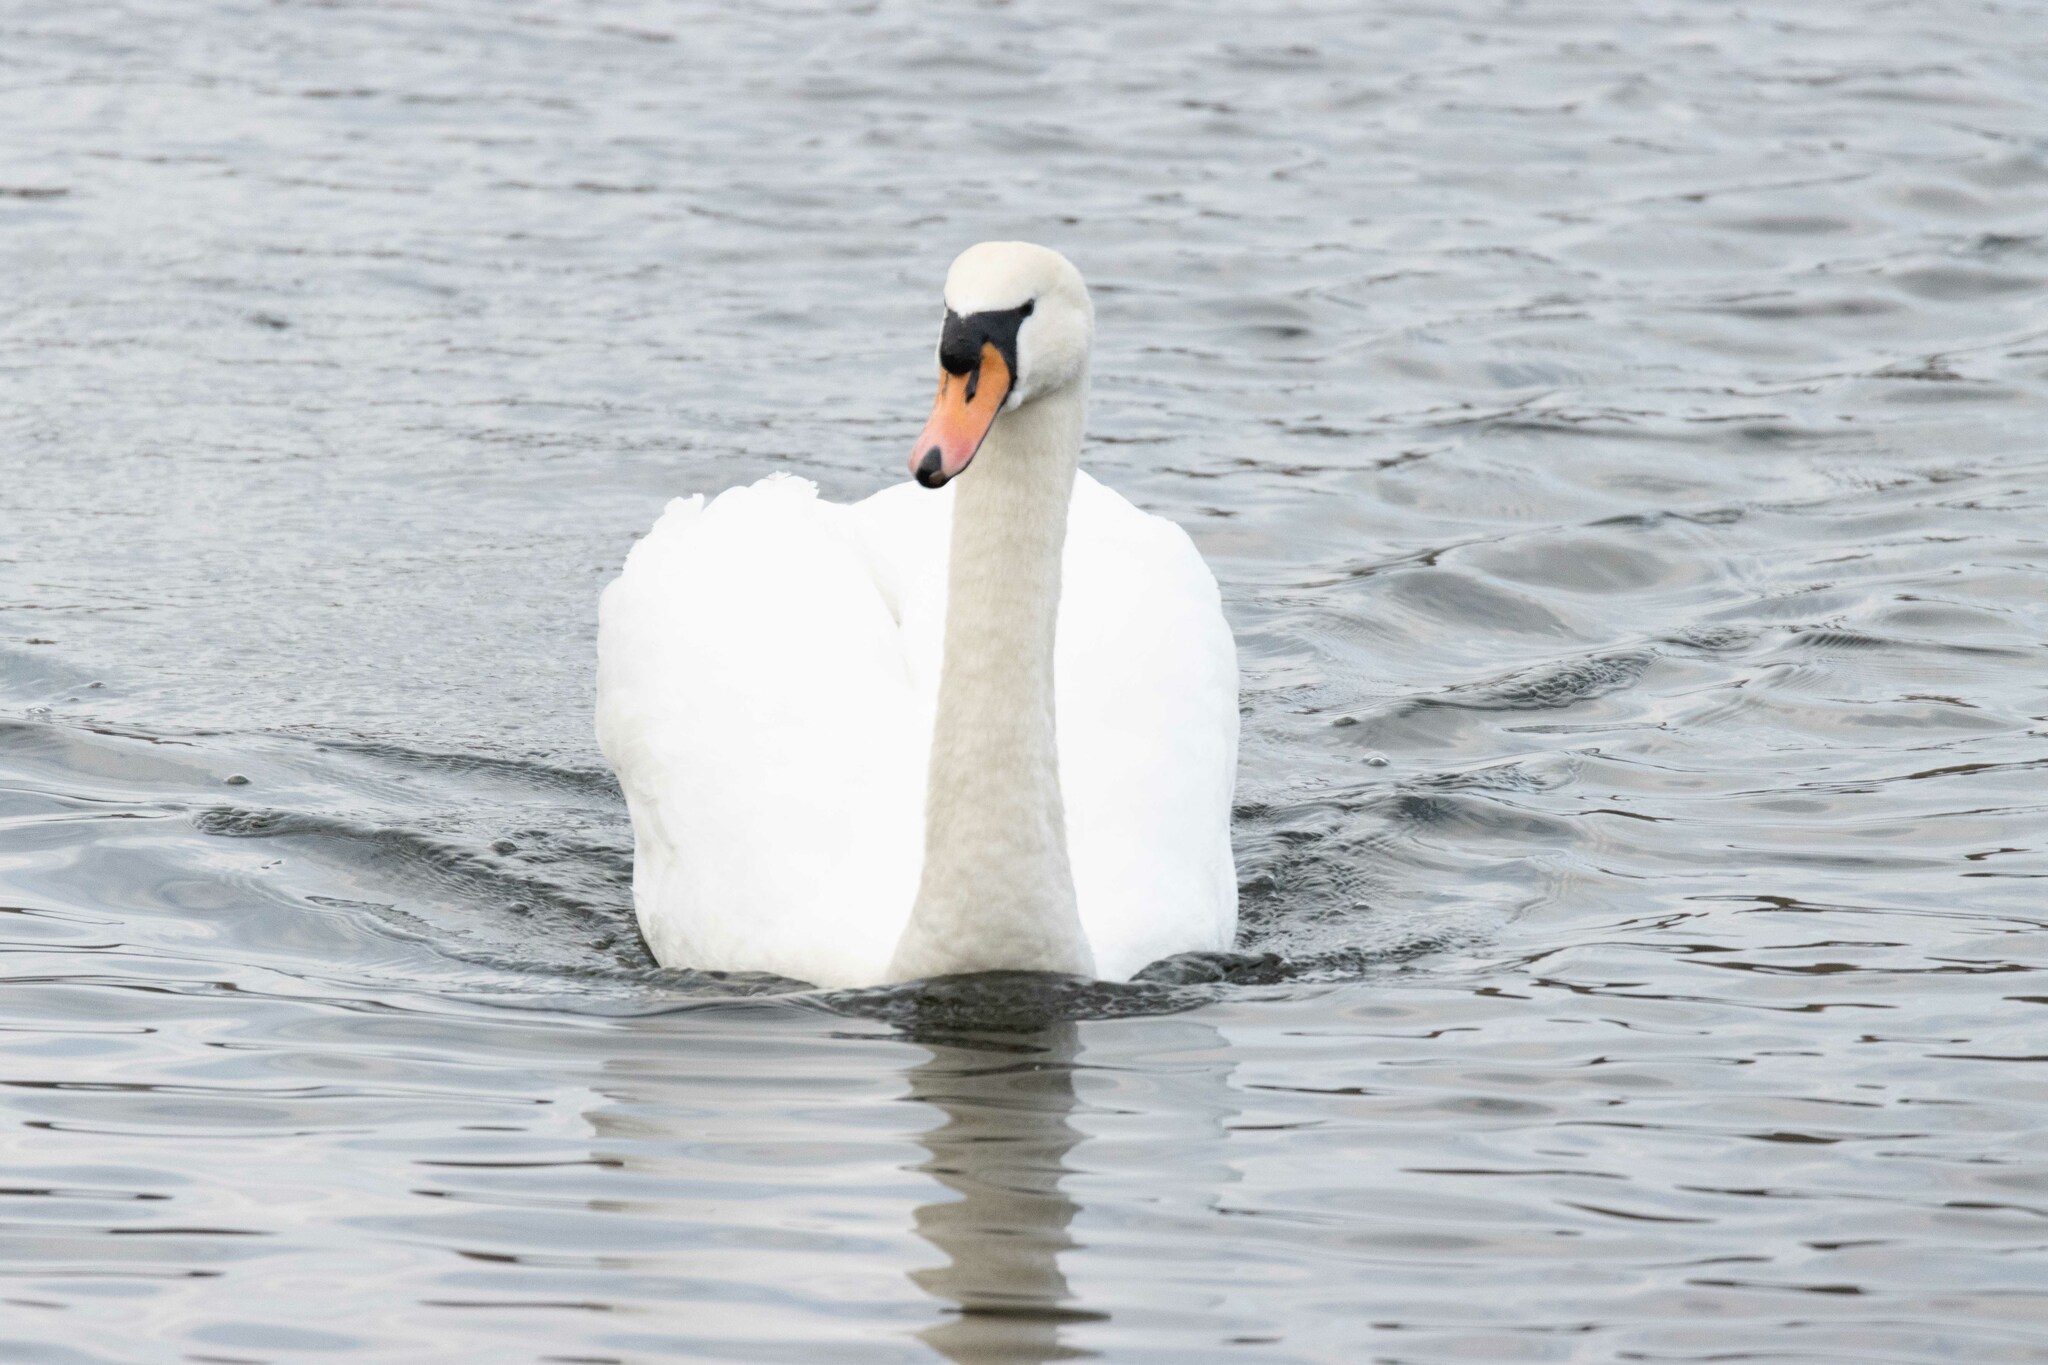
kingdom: Animalia
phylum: Chordata
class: Aves
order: Anseriformes
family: Anatidae
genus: Cygnus
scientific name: Cygnus olor
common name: Mute swan
